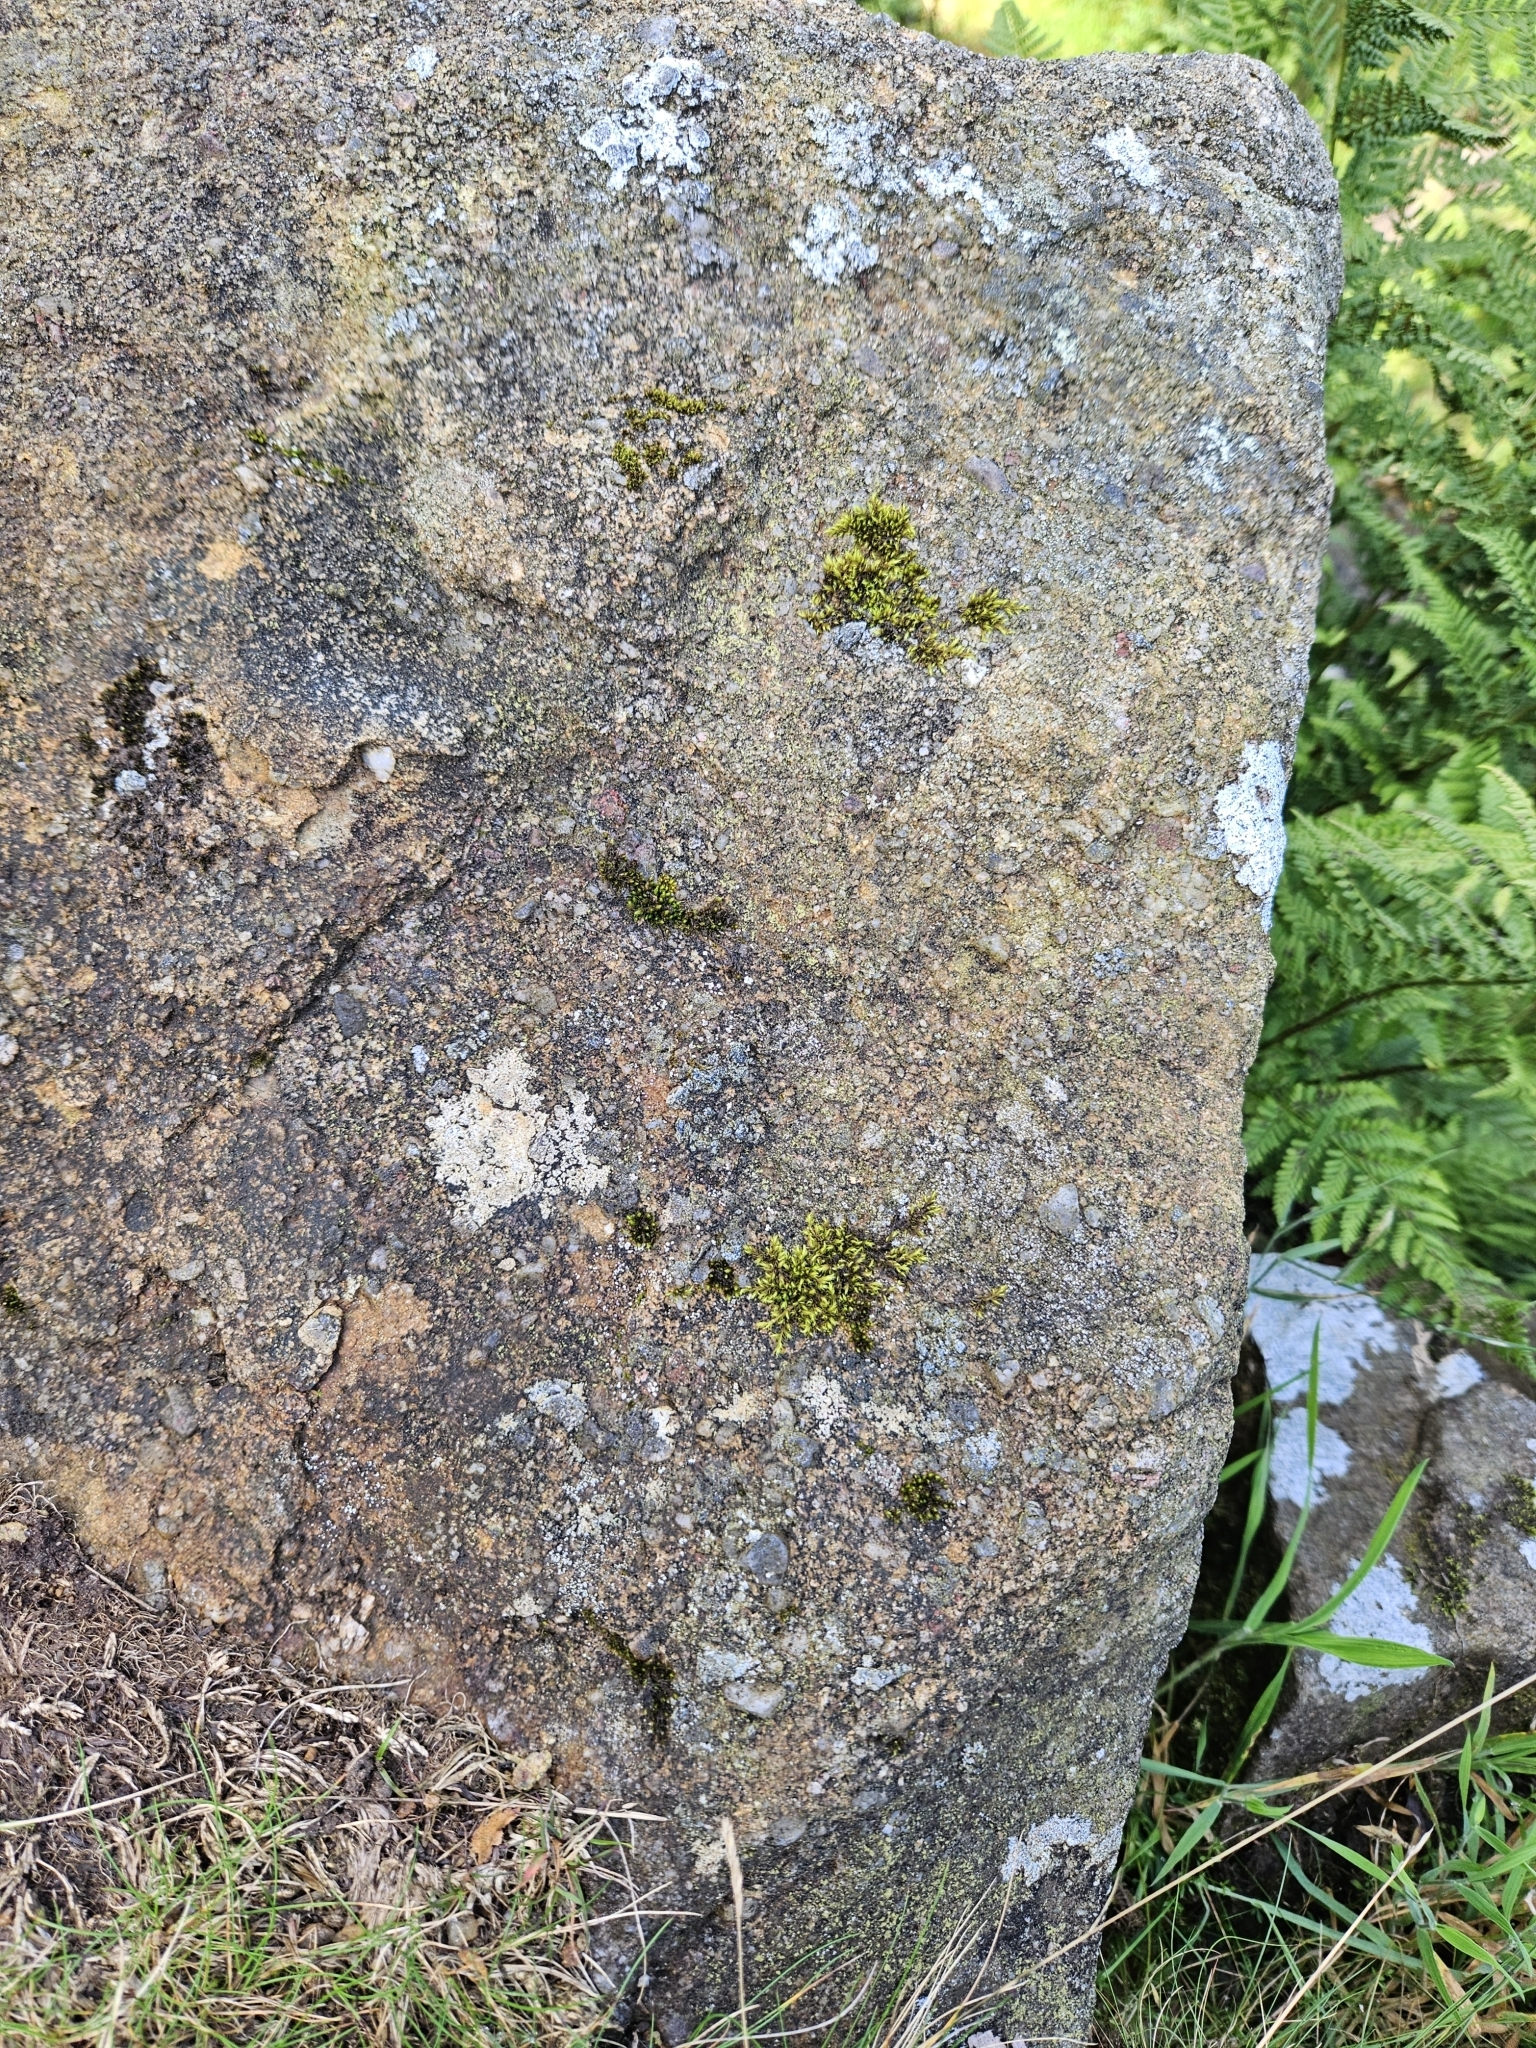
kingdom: Plantae
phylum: Bryophyta
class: Bryopsida
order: Grimmiales
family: Grimmiaceae
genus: Dilutineuron
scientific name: Dilutineuron fasciculare
